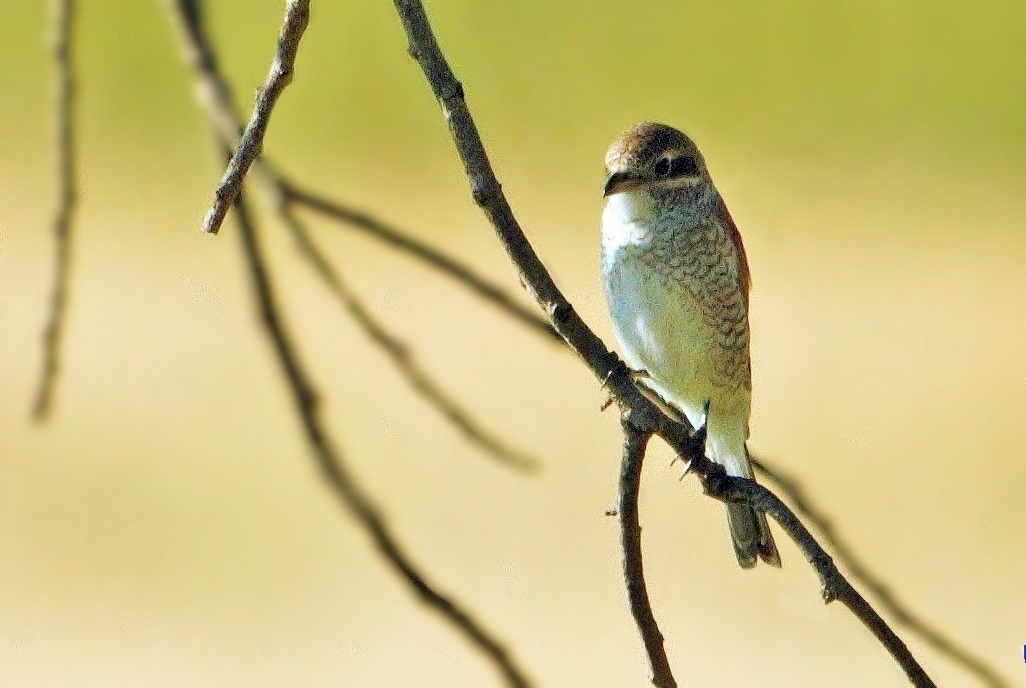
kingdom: Animalia
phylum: Chordata
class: Aves
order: Passeriformes
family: Laniidae
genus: Lanius
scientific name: Lanius collurio
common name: Red-backed shrike
